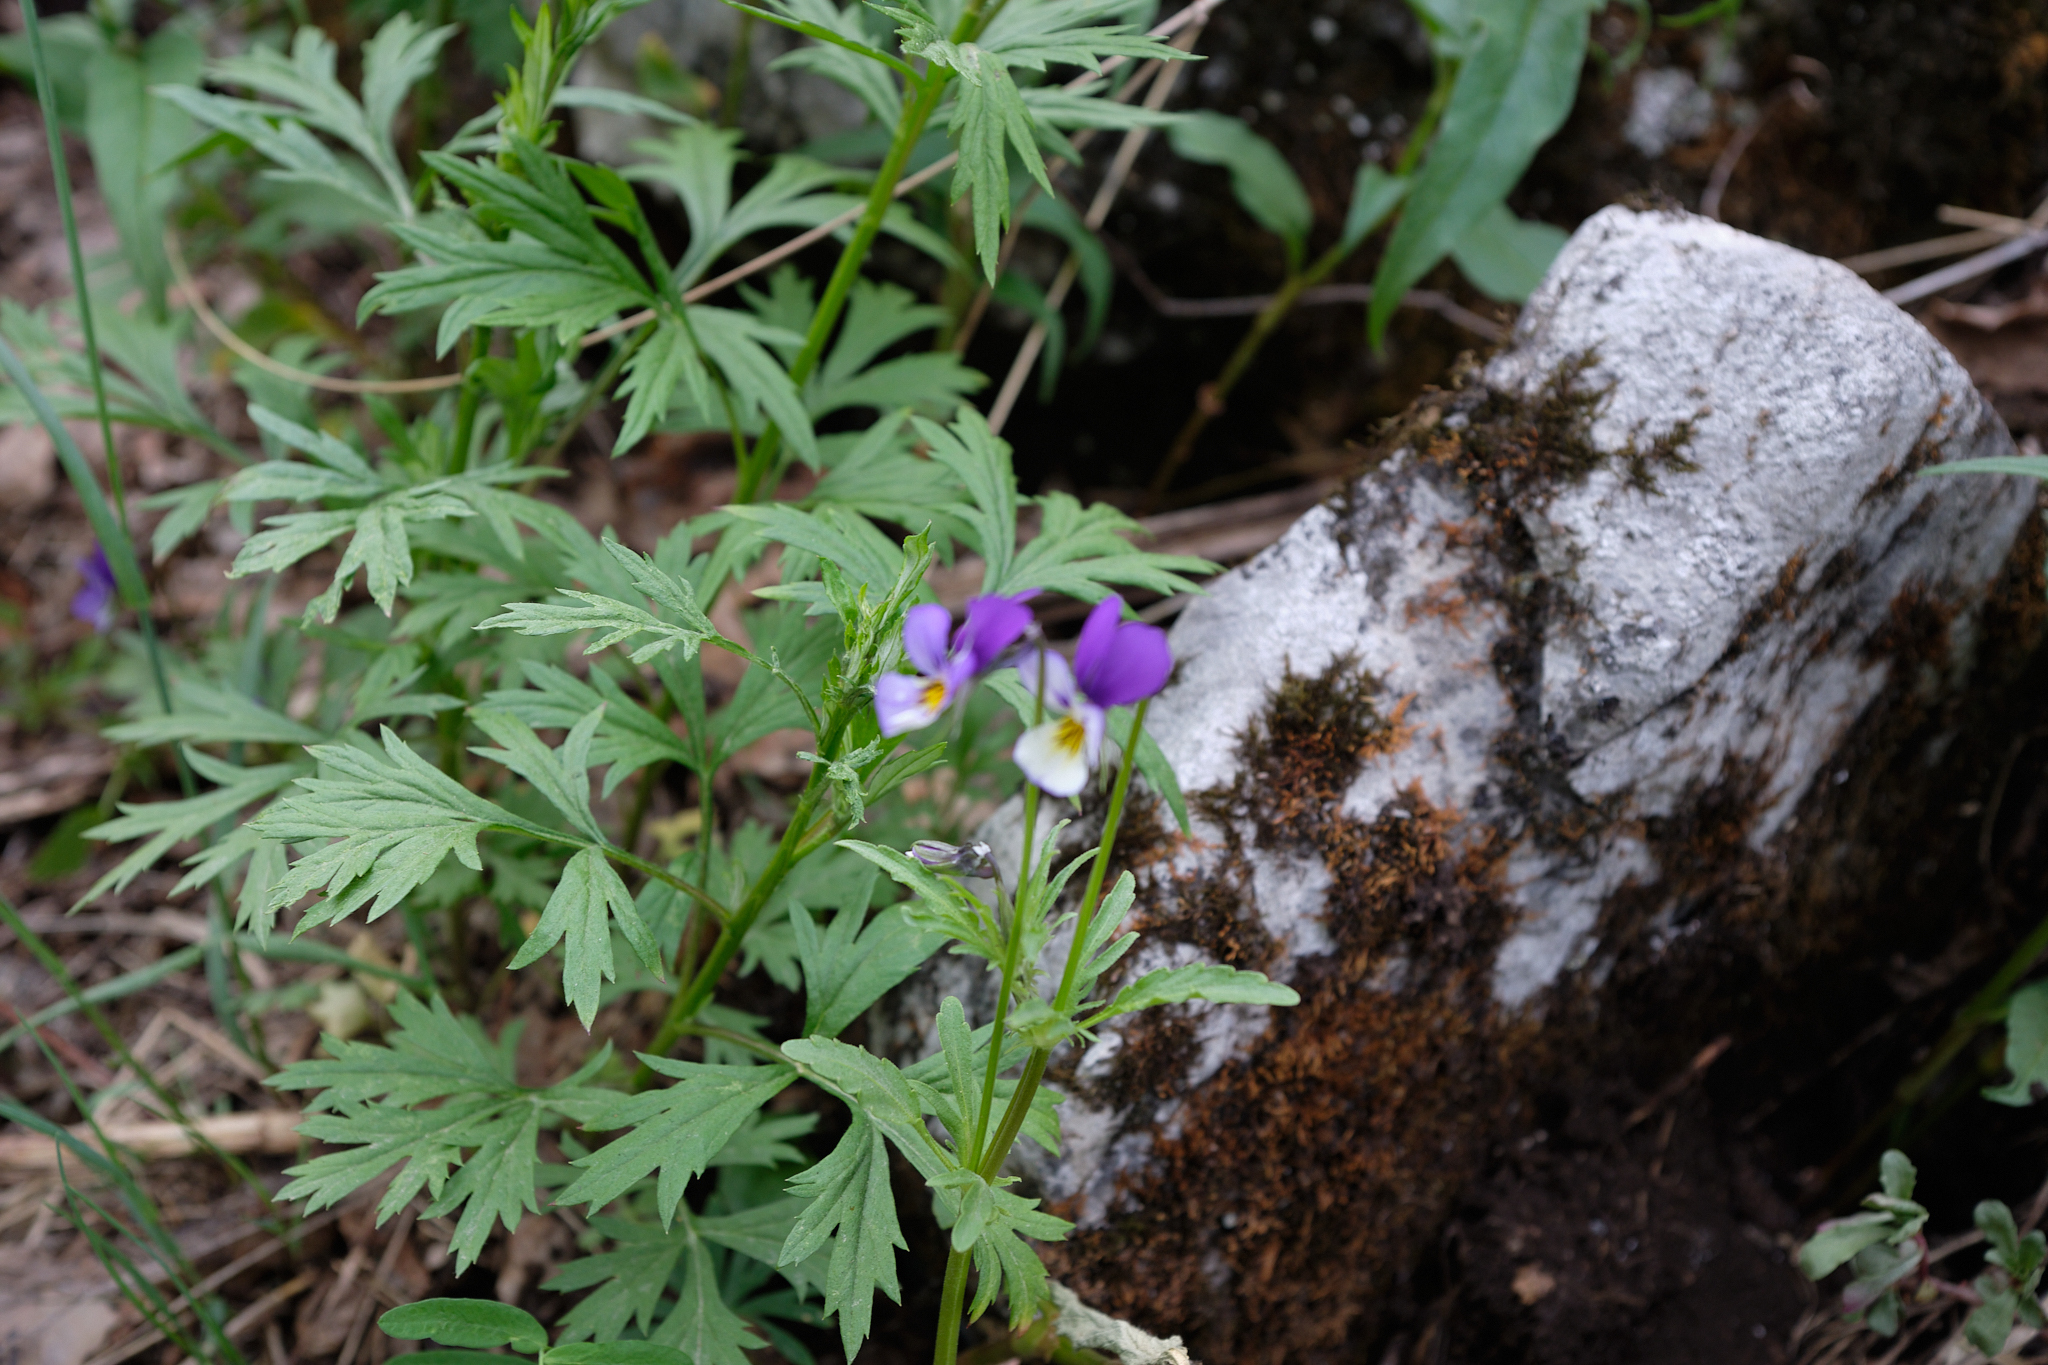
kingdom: Plantae
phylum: Tracheophyta
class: Magnoliopsida
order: Malpighiales
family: Violaceae
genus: Viola
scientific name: Viola tricolor
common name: Pansy
